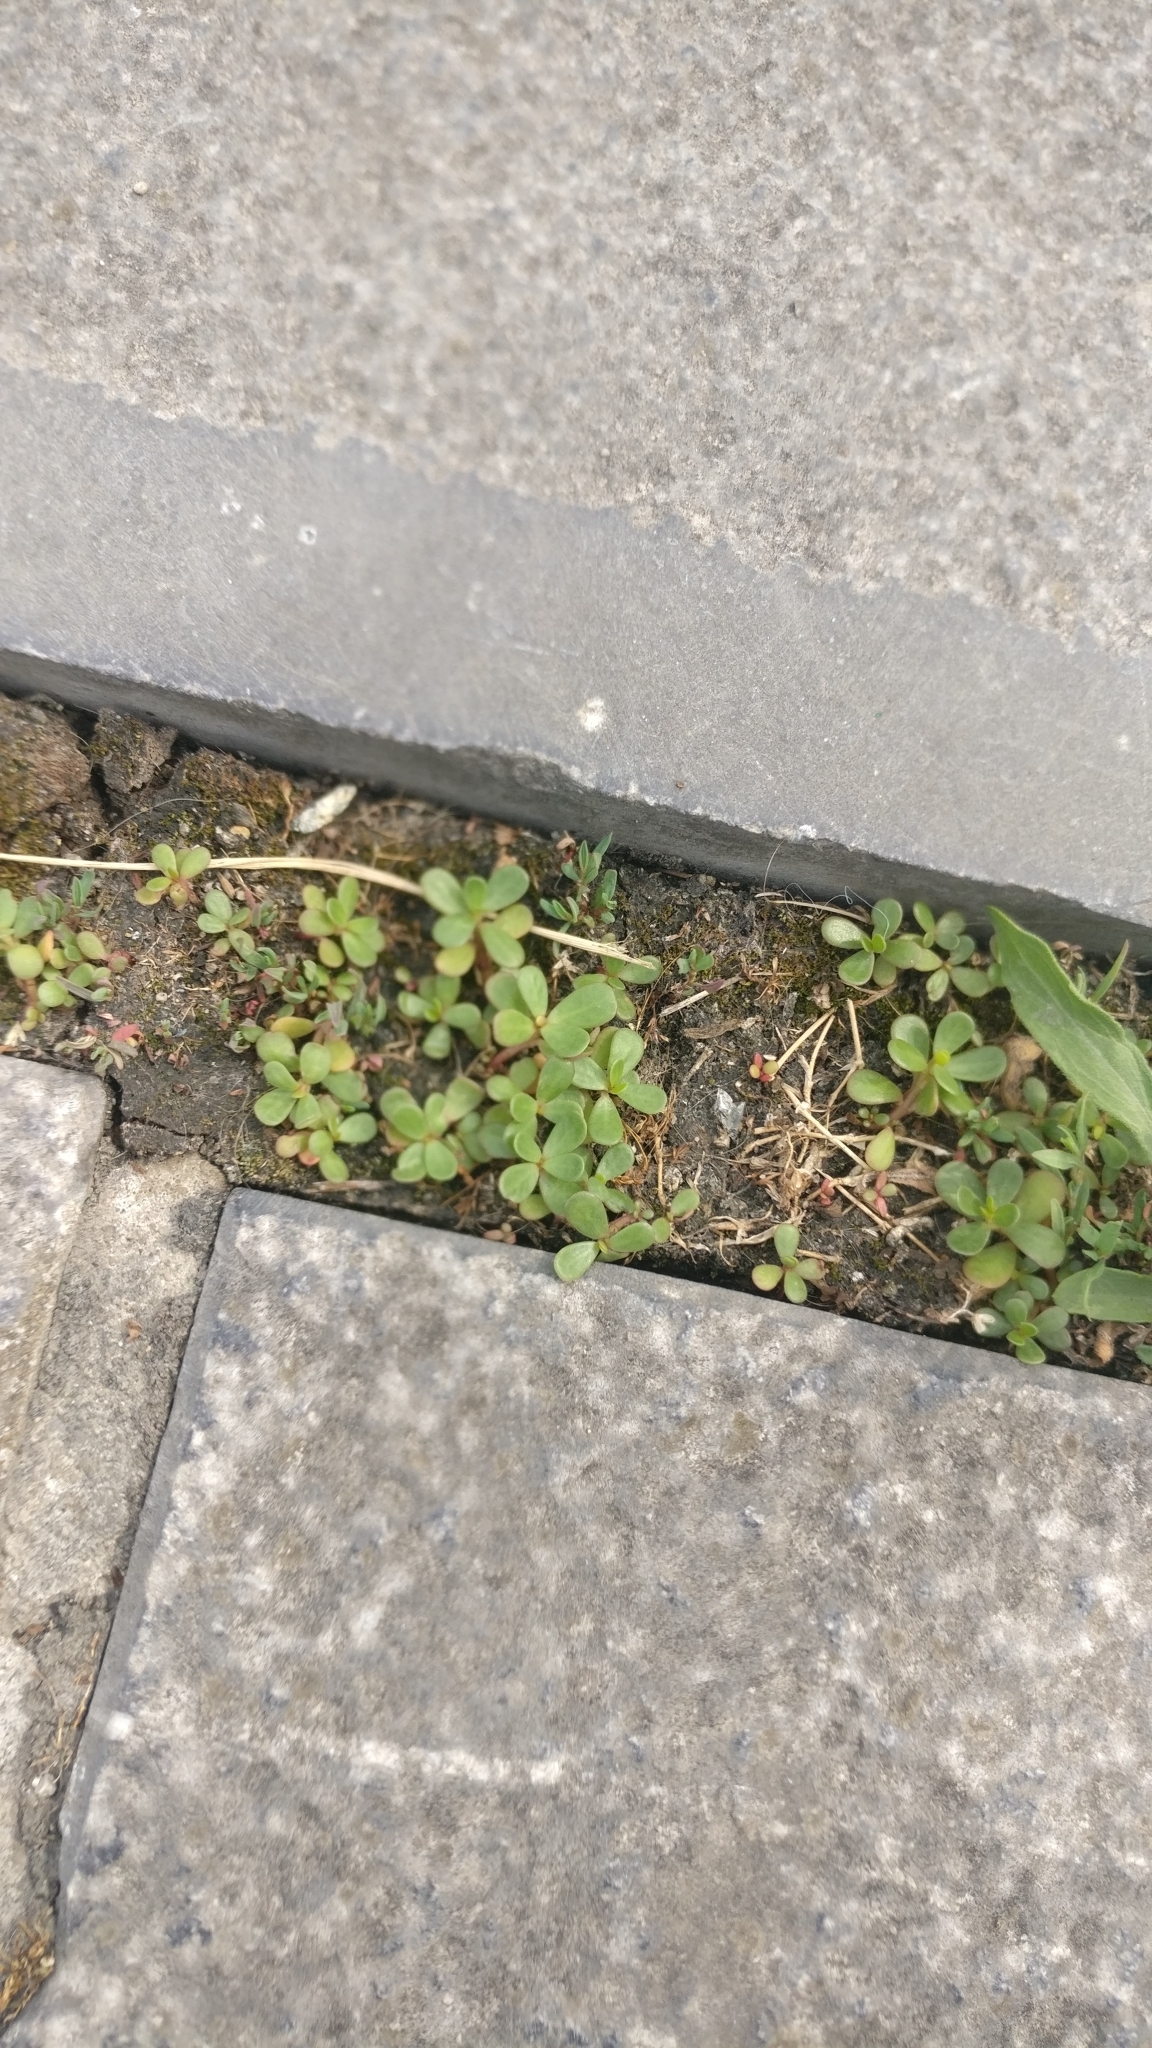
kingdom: Plantae
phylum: Tracheophyta
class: Magnoliopsida
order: Caryophyllales
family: Portulacaceae
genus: Portulaca
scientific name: Portulaca oleracea
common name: Common purslane
